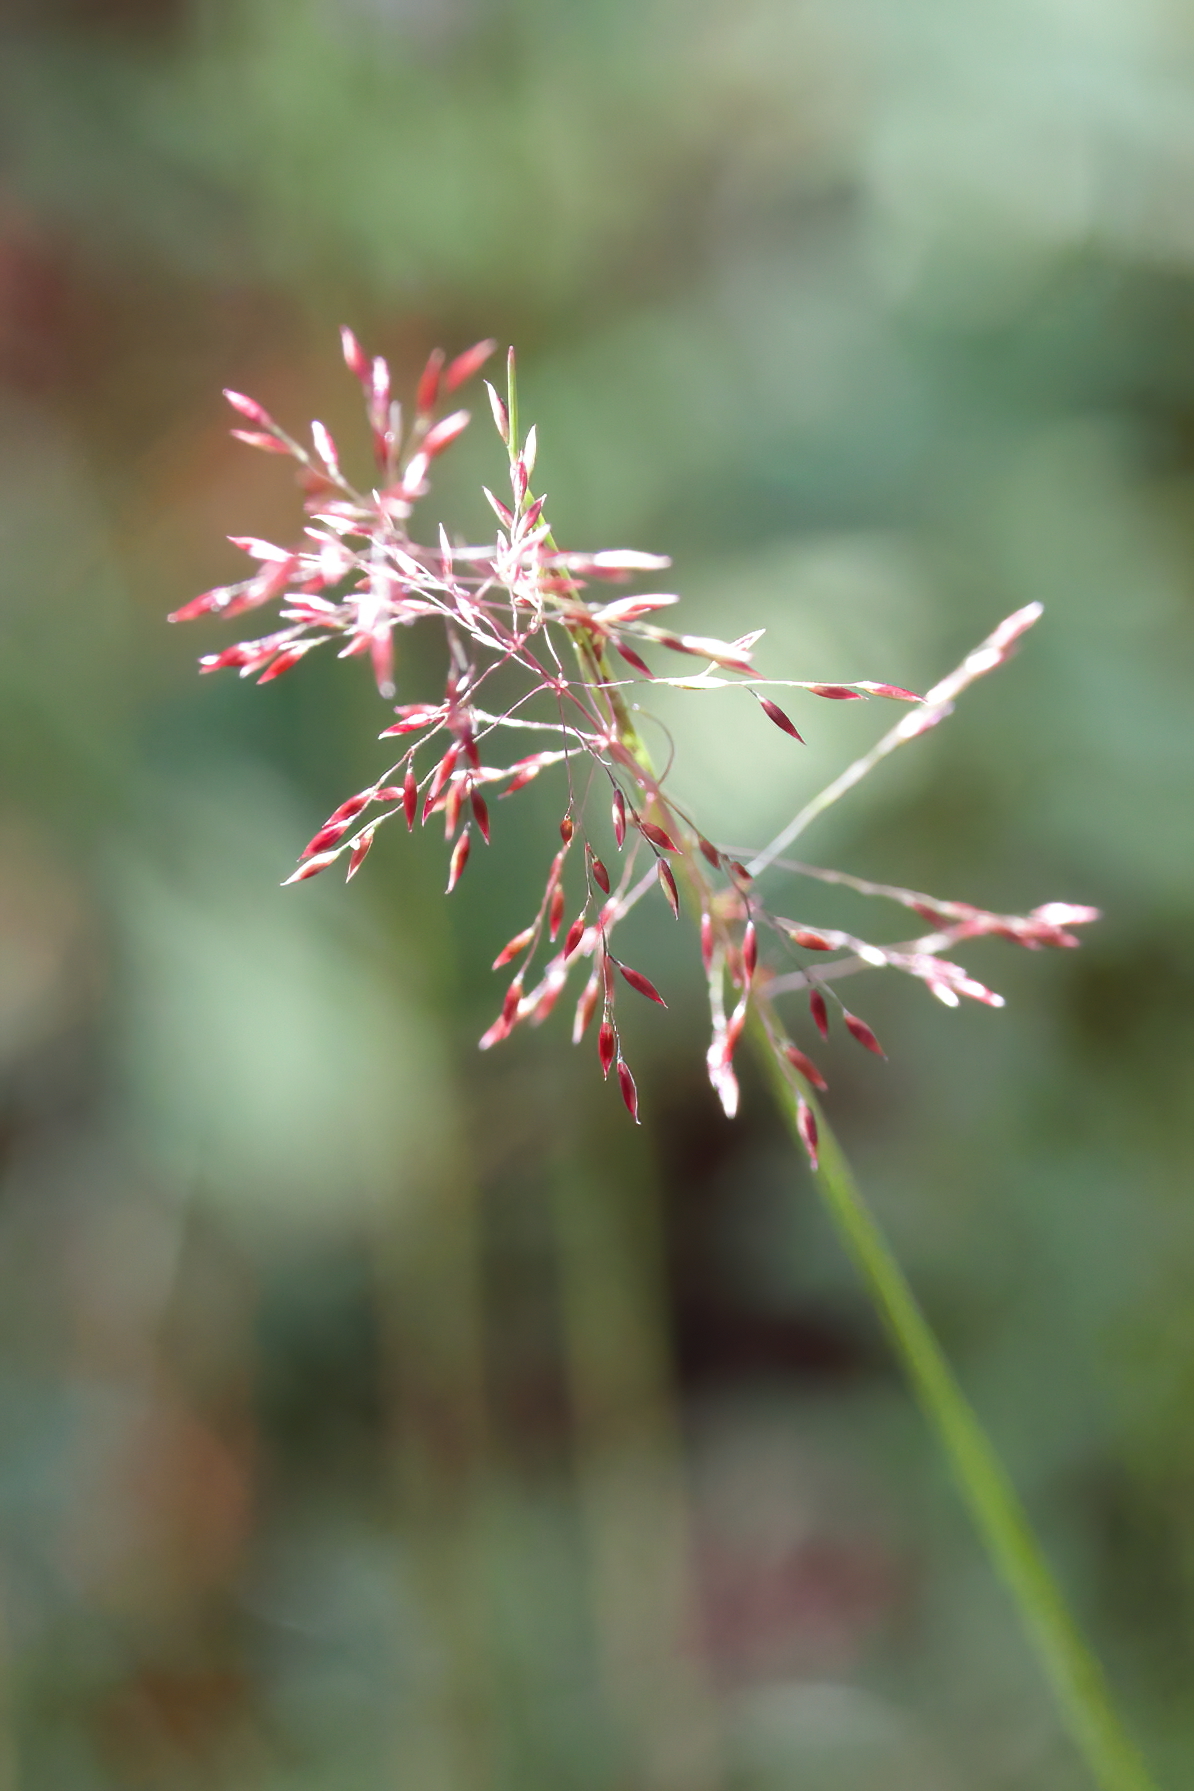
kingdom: Plantae
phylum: Tracheophyta
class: Liliopsida
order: Poales
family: Poaceae
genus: Sporobolus
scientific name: Sporobolus junceus
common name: Lizard grass
